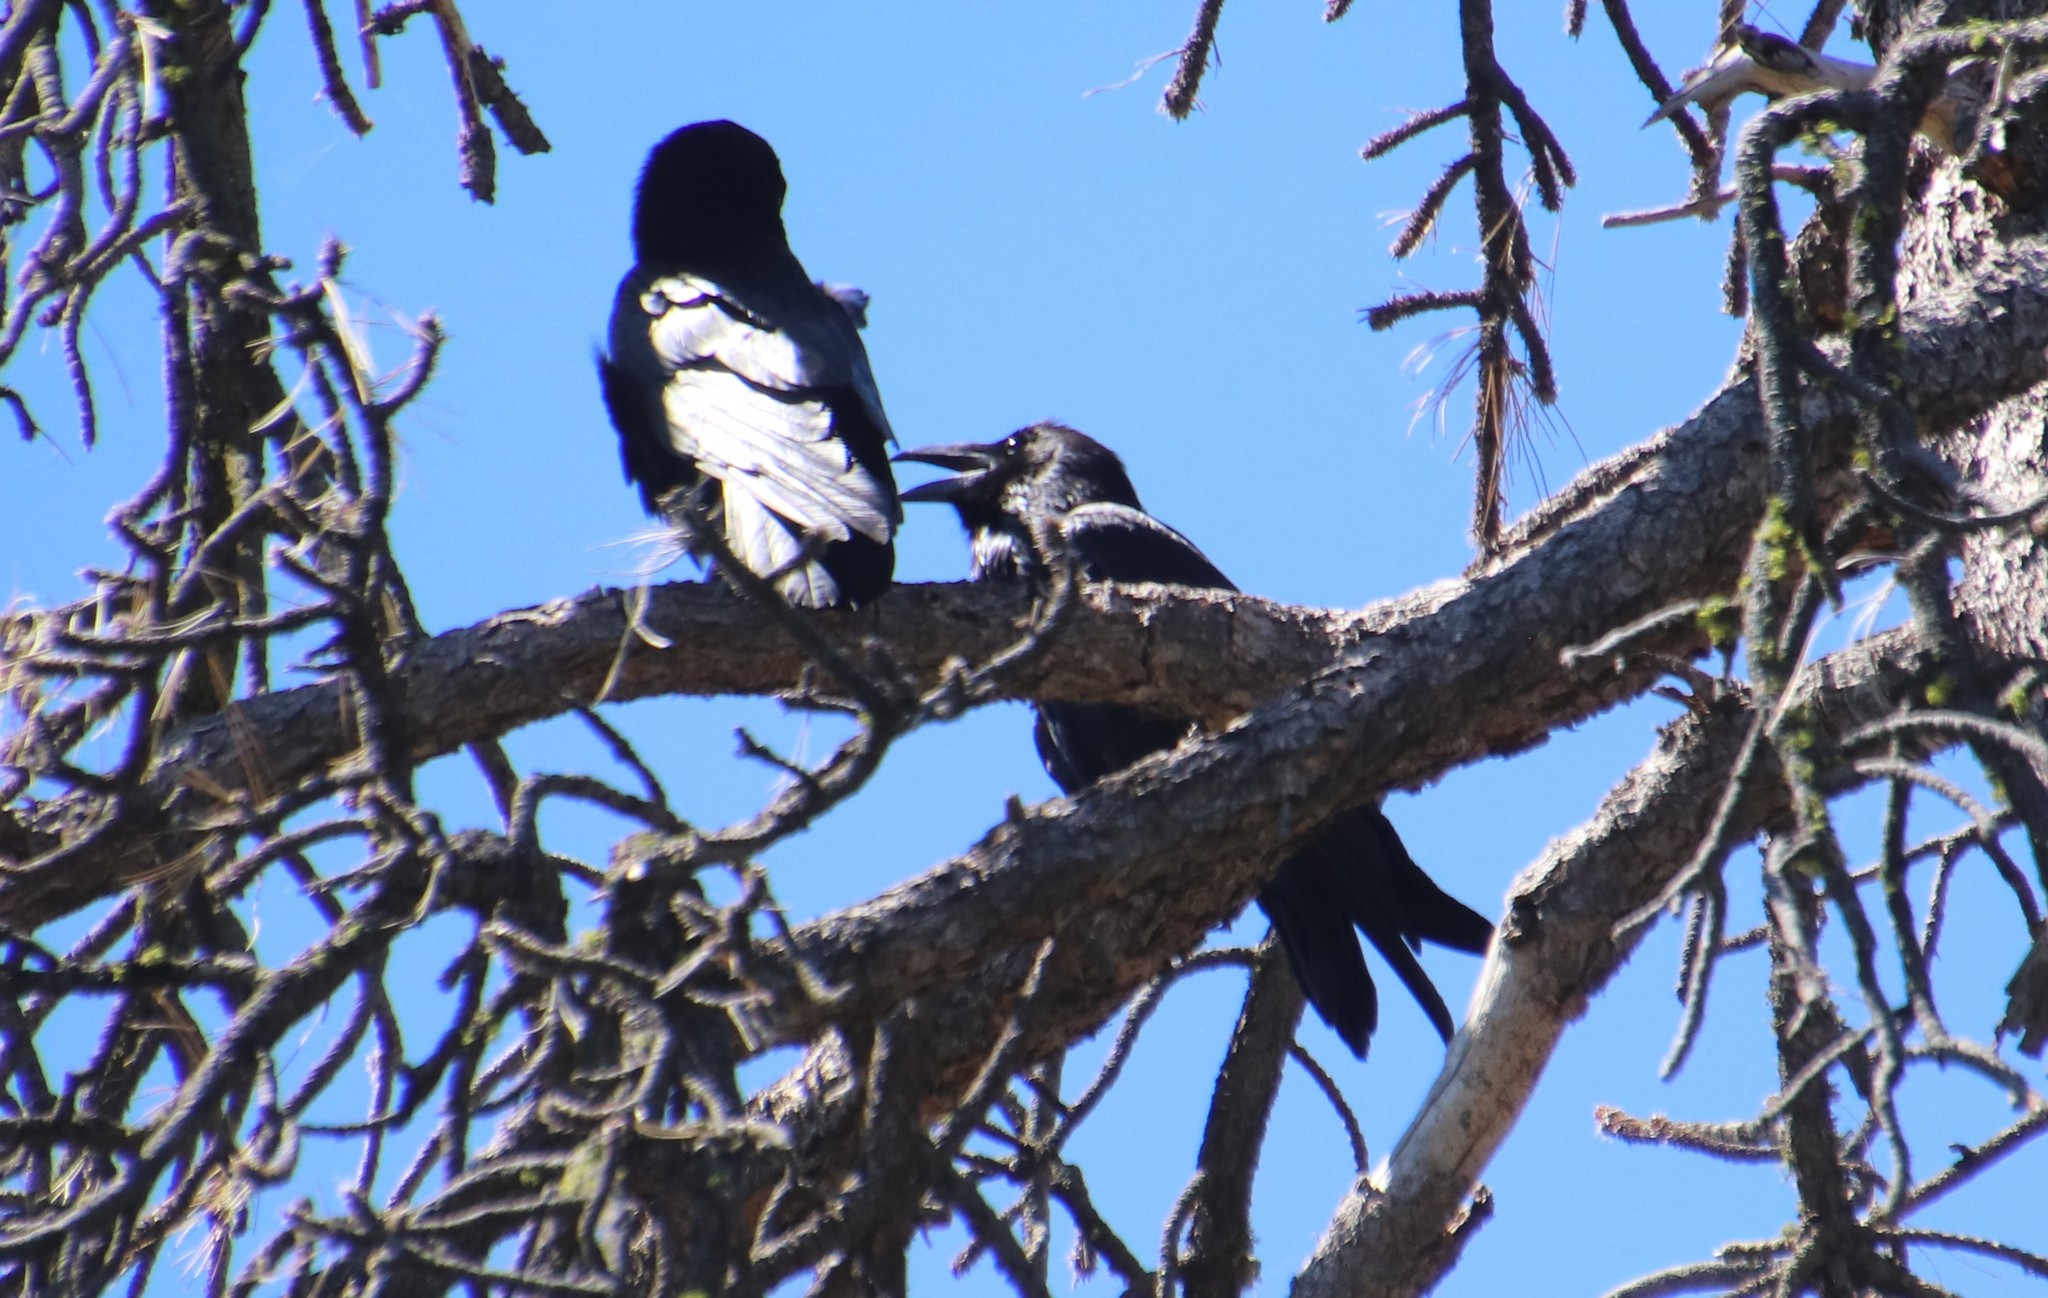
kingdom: Animalia
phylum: Chordata
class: Aves
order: Passeriformes
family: Corvidae
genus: Corvus
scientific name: Corvus corax
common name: Common raven
